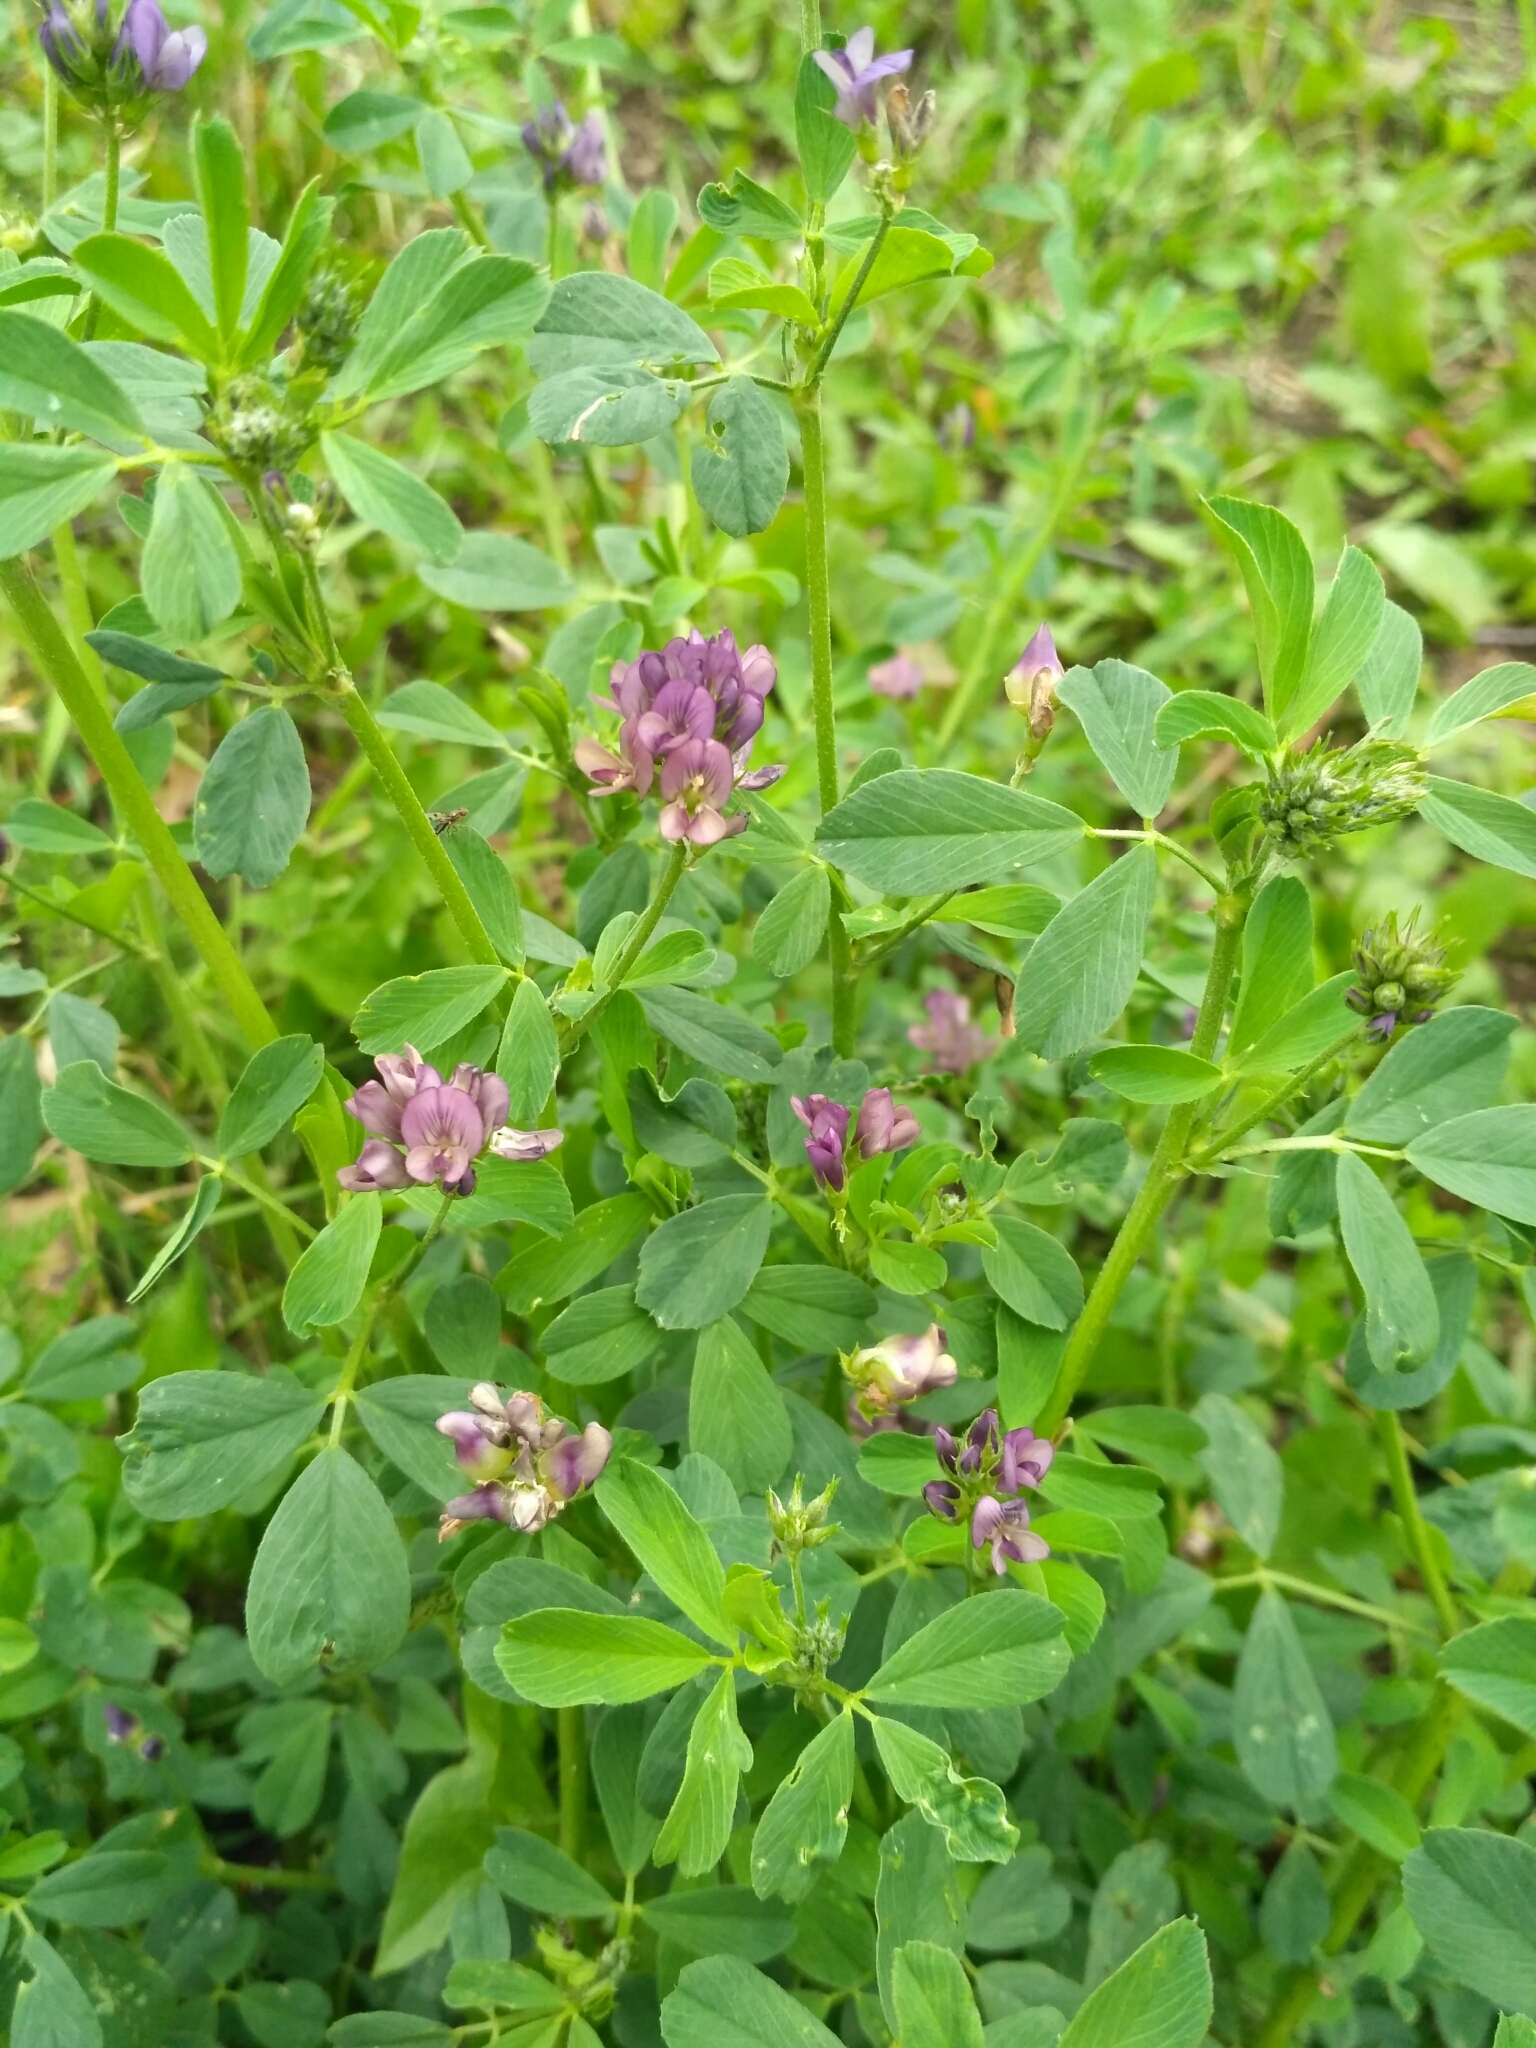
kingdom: Plantae
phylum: Tracheophyta
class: Magnoliopsida
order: Fabales
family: Fabaceae
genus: Medicago
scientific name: Medicago varia
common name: Sand lucerne
